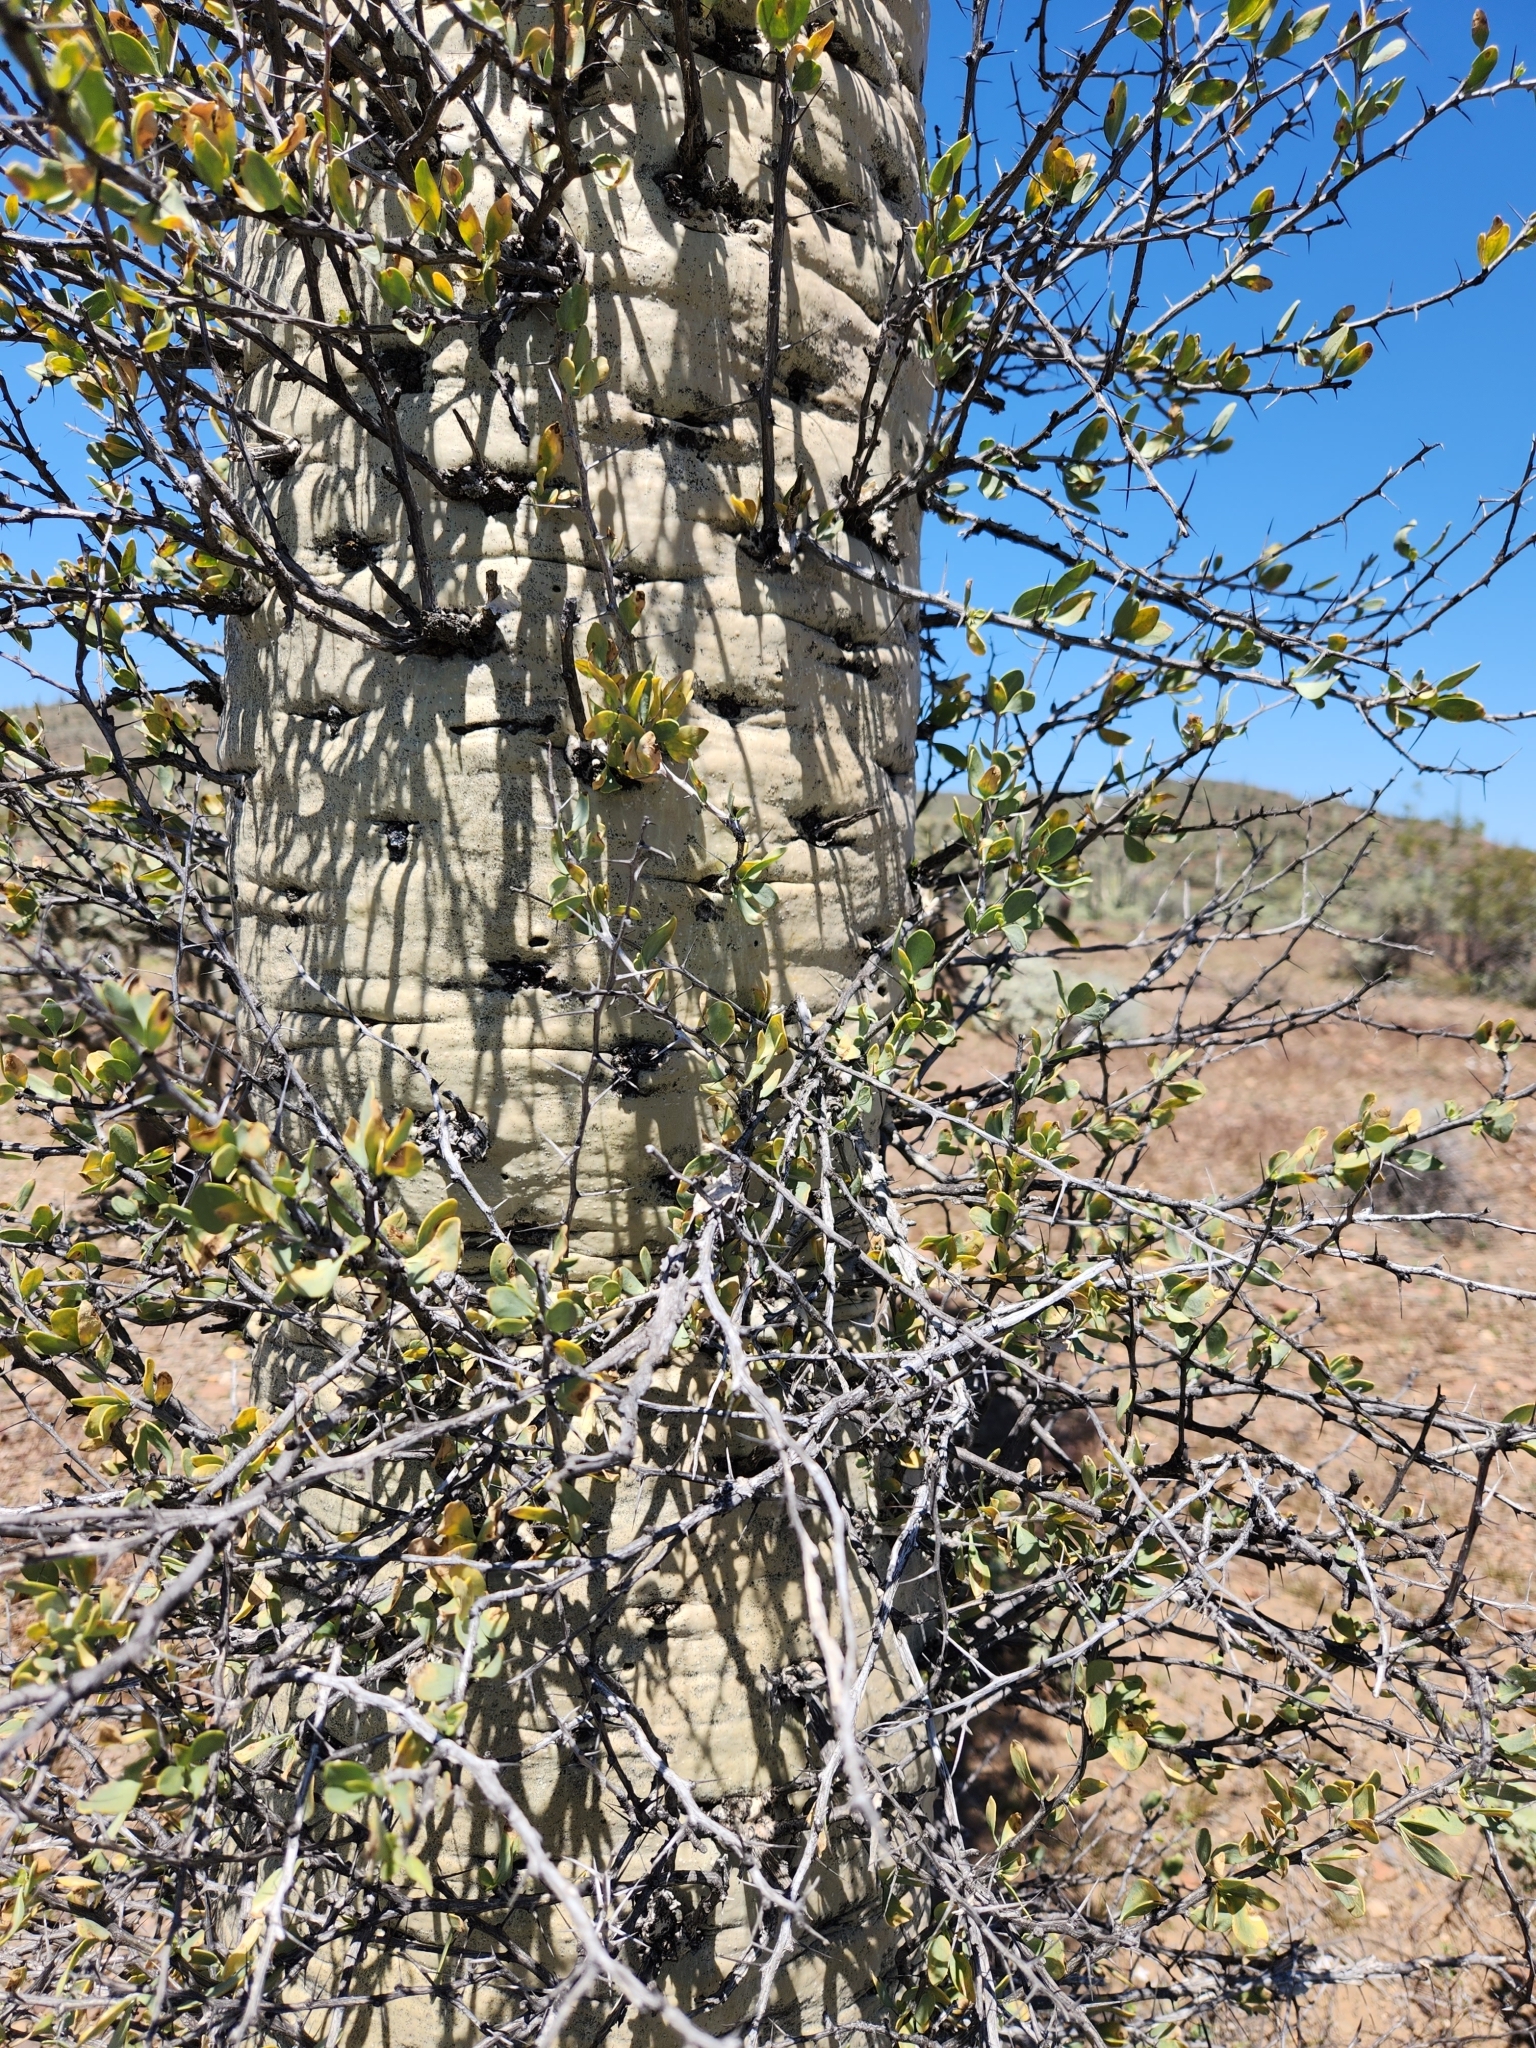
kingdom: Plantae
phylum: Tracheophyta
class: Magnoliopsida
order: Ericales
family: Fouquieriaceae
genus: Fouquieria
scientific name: Fouquieria columnaris
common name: Boojumtree
